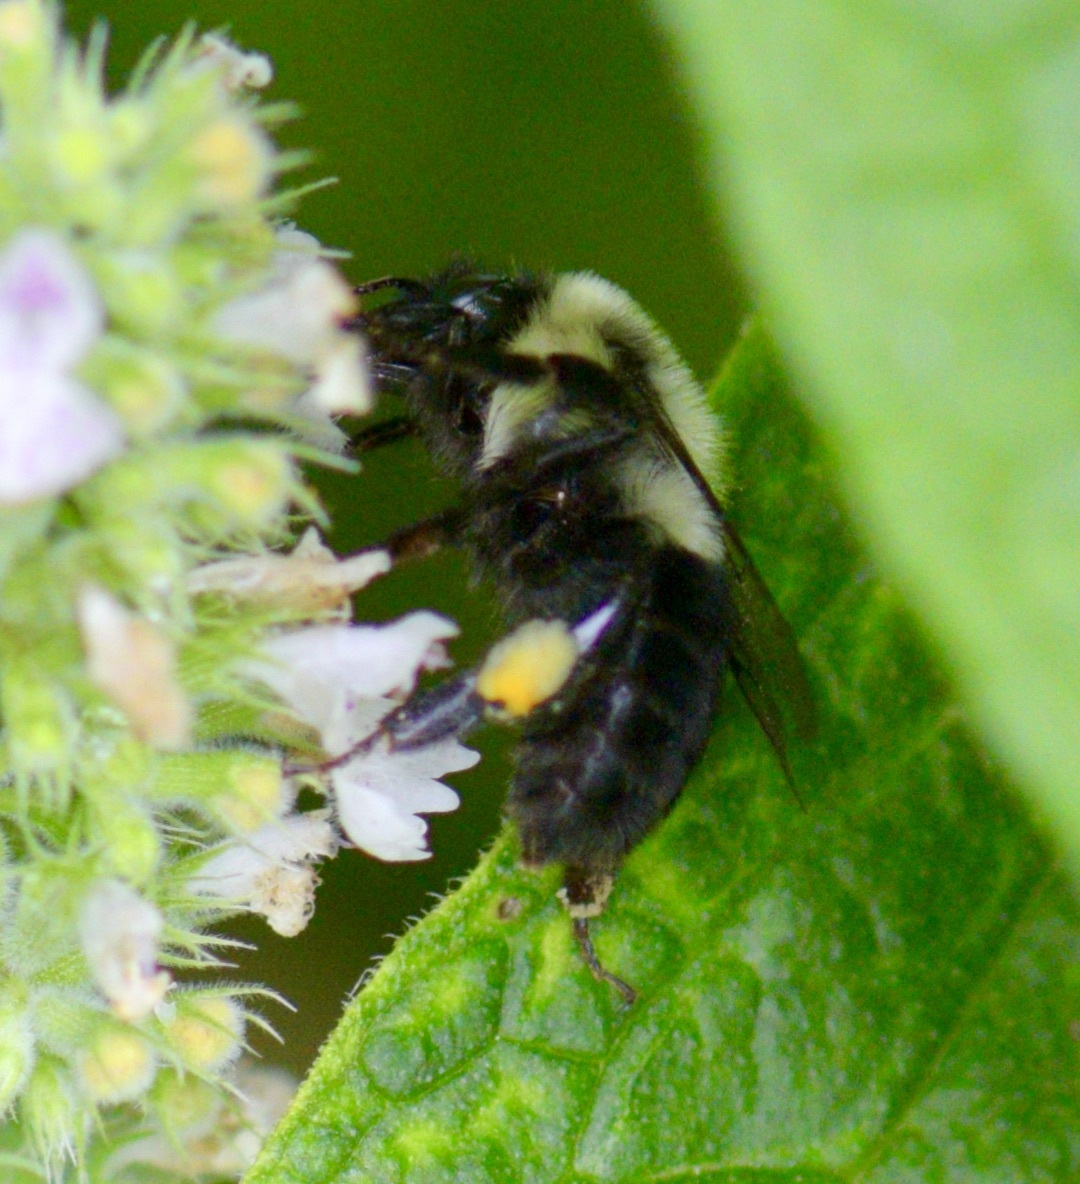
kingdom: Animalia
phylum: Arthropoda
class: Insecta
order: Hymenoptera
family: Apidae
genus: Bombus
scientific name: Bombus impatiens
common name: Common eastern bumble bee
